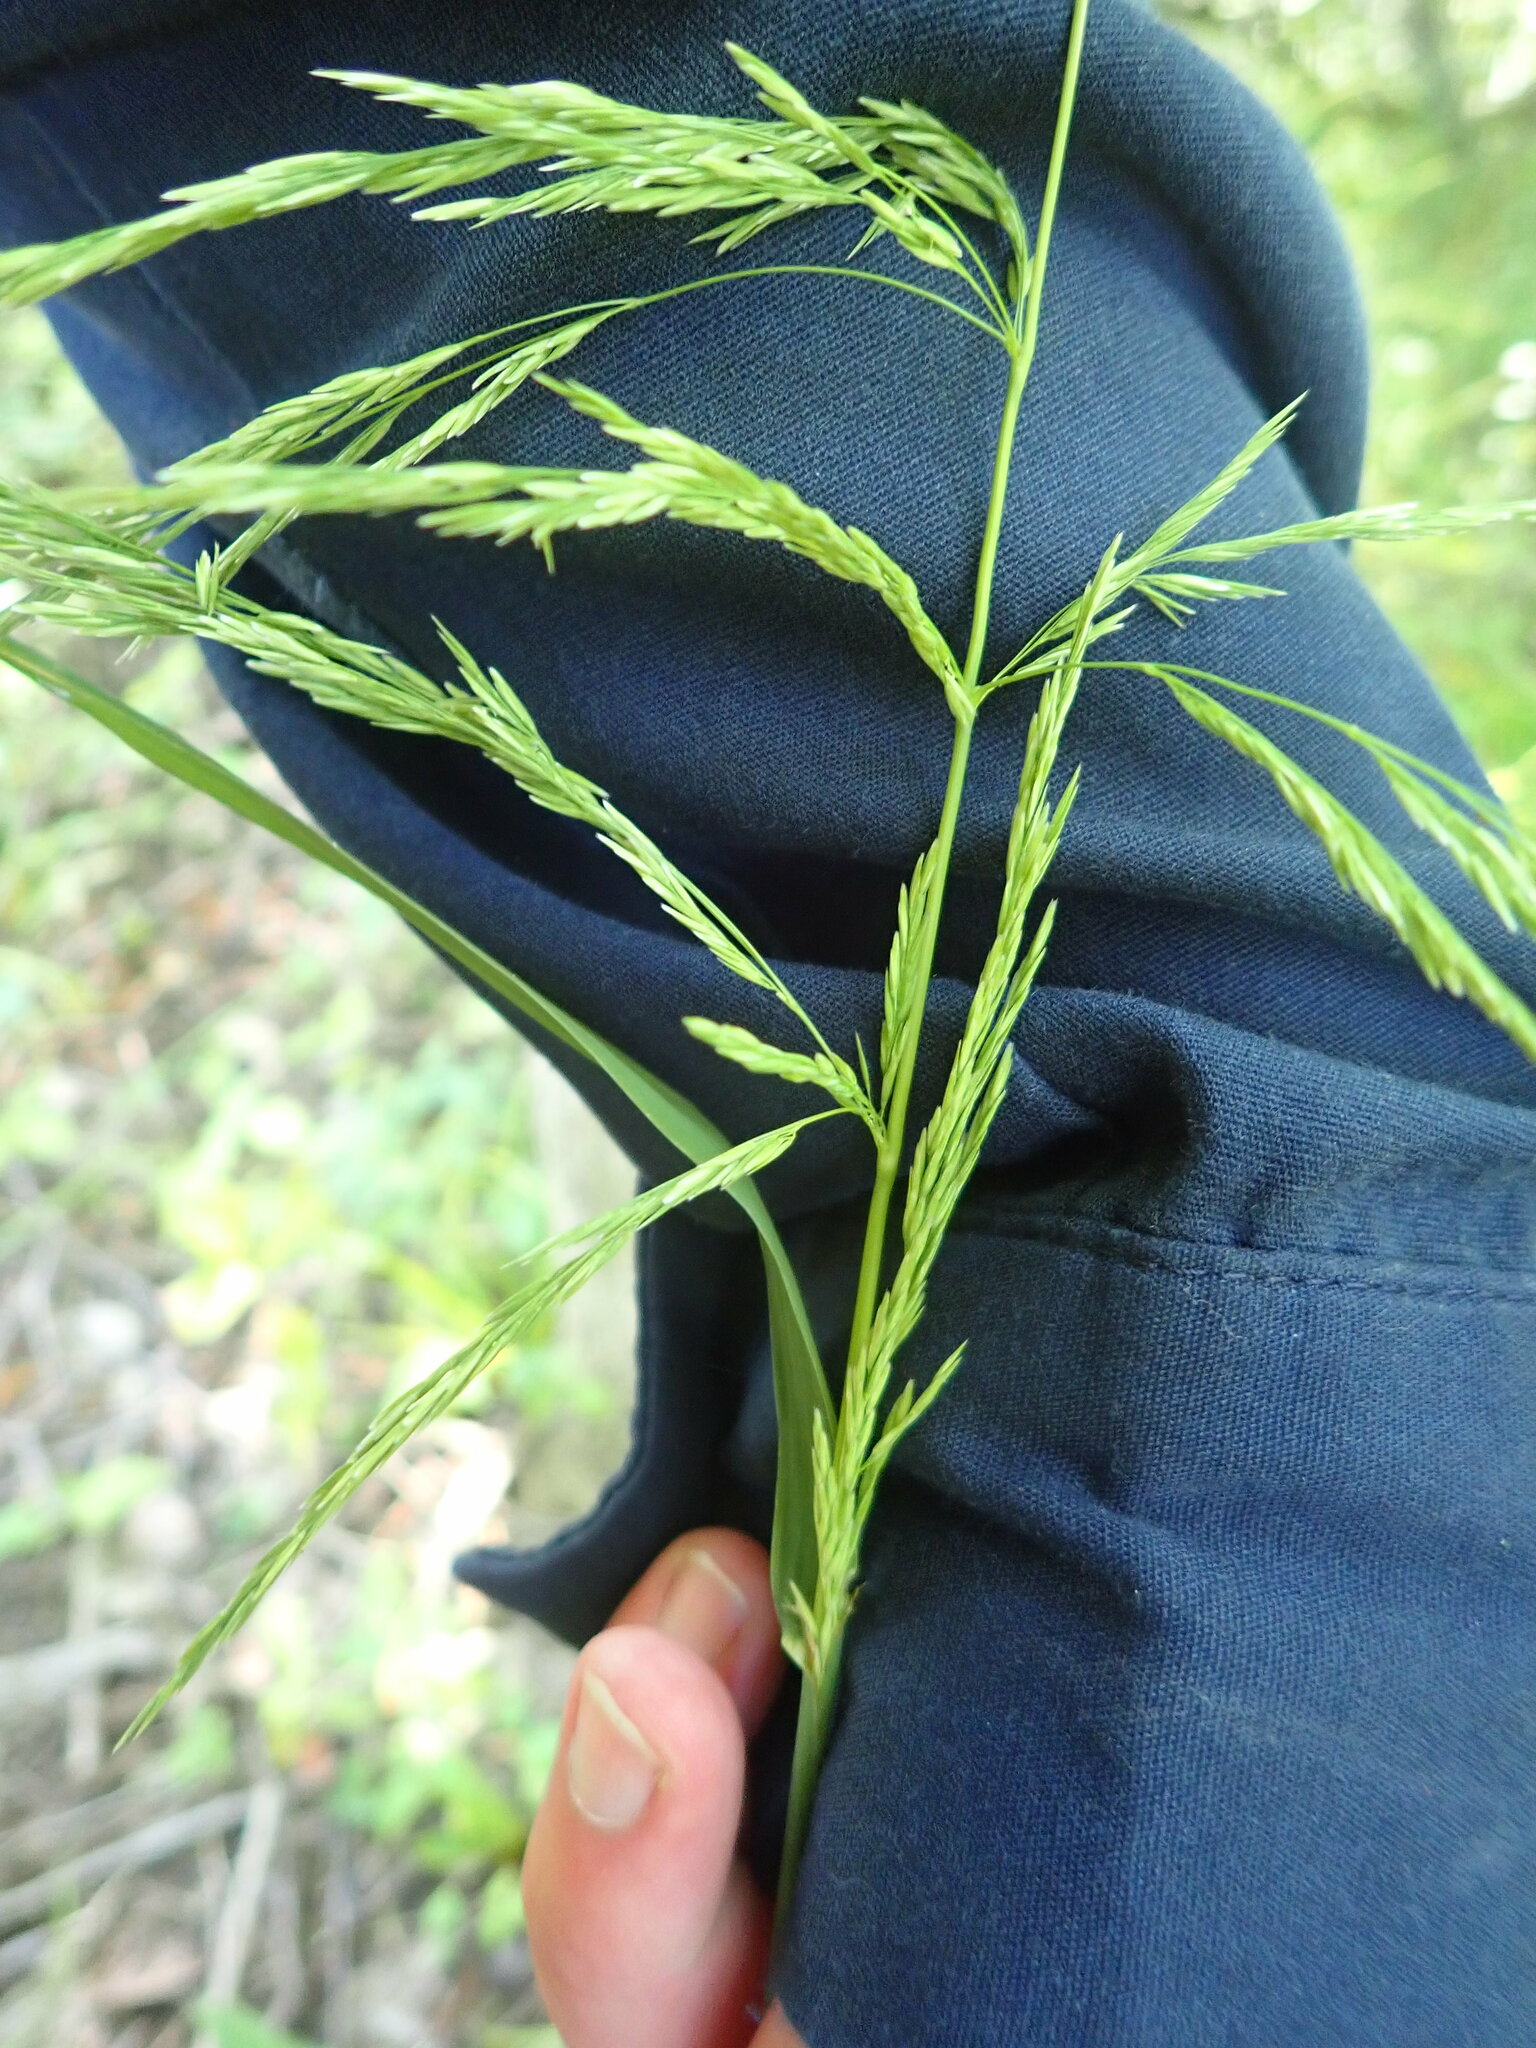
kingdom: Plantae
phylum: Tracheophyta
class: Liliopsida
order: Poales
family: Poaceae
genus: Cinna
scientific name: Cinna arundinacea
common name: Stout woodreed
